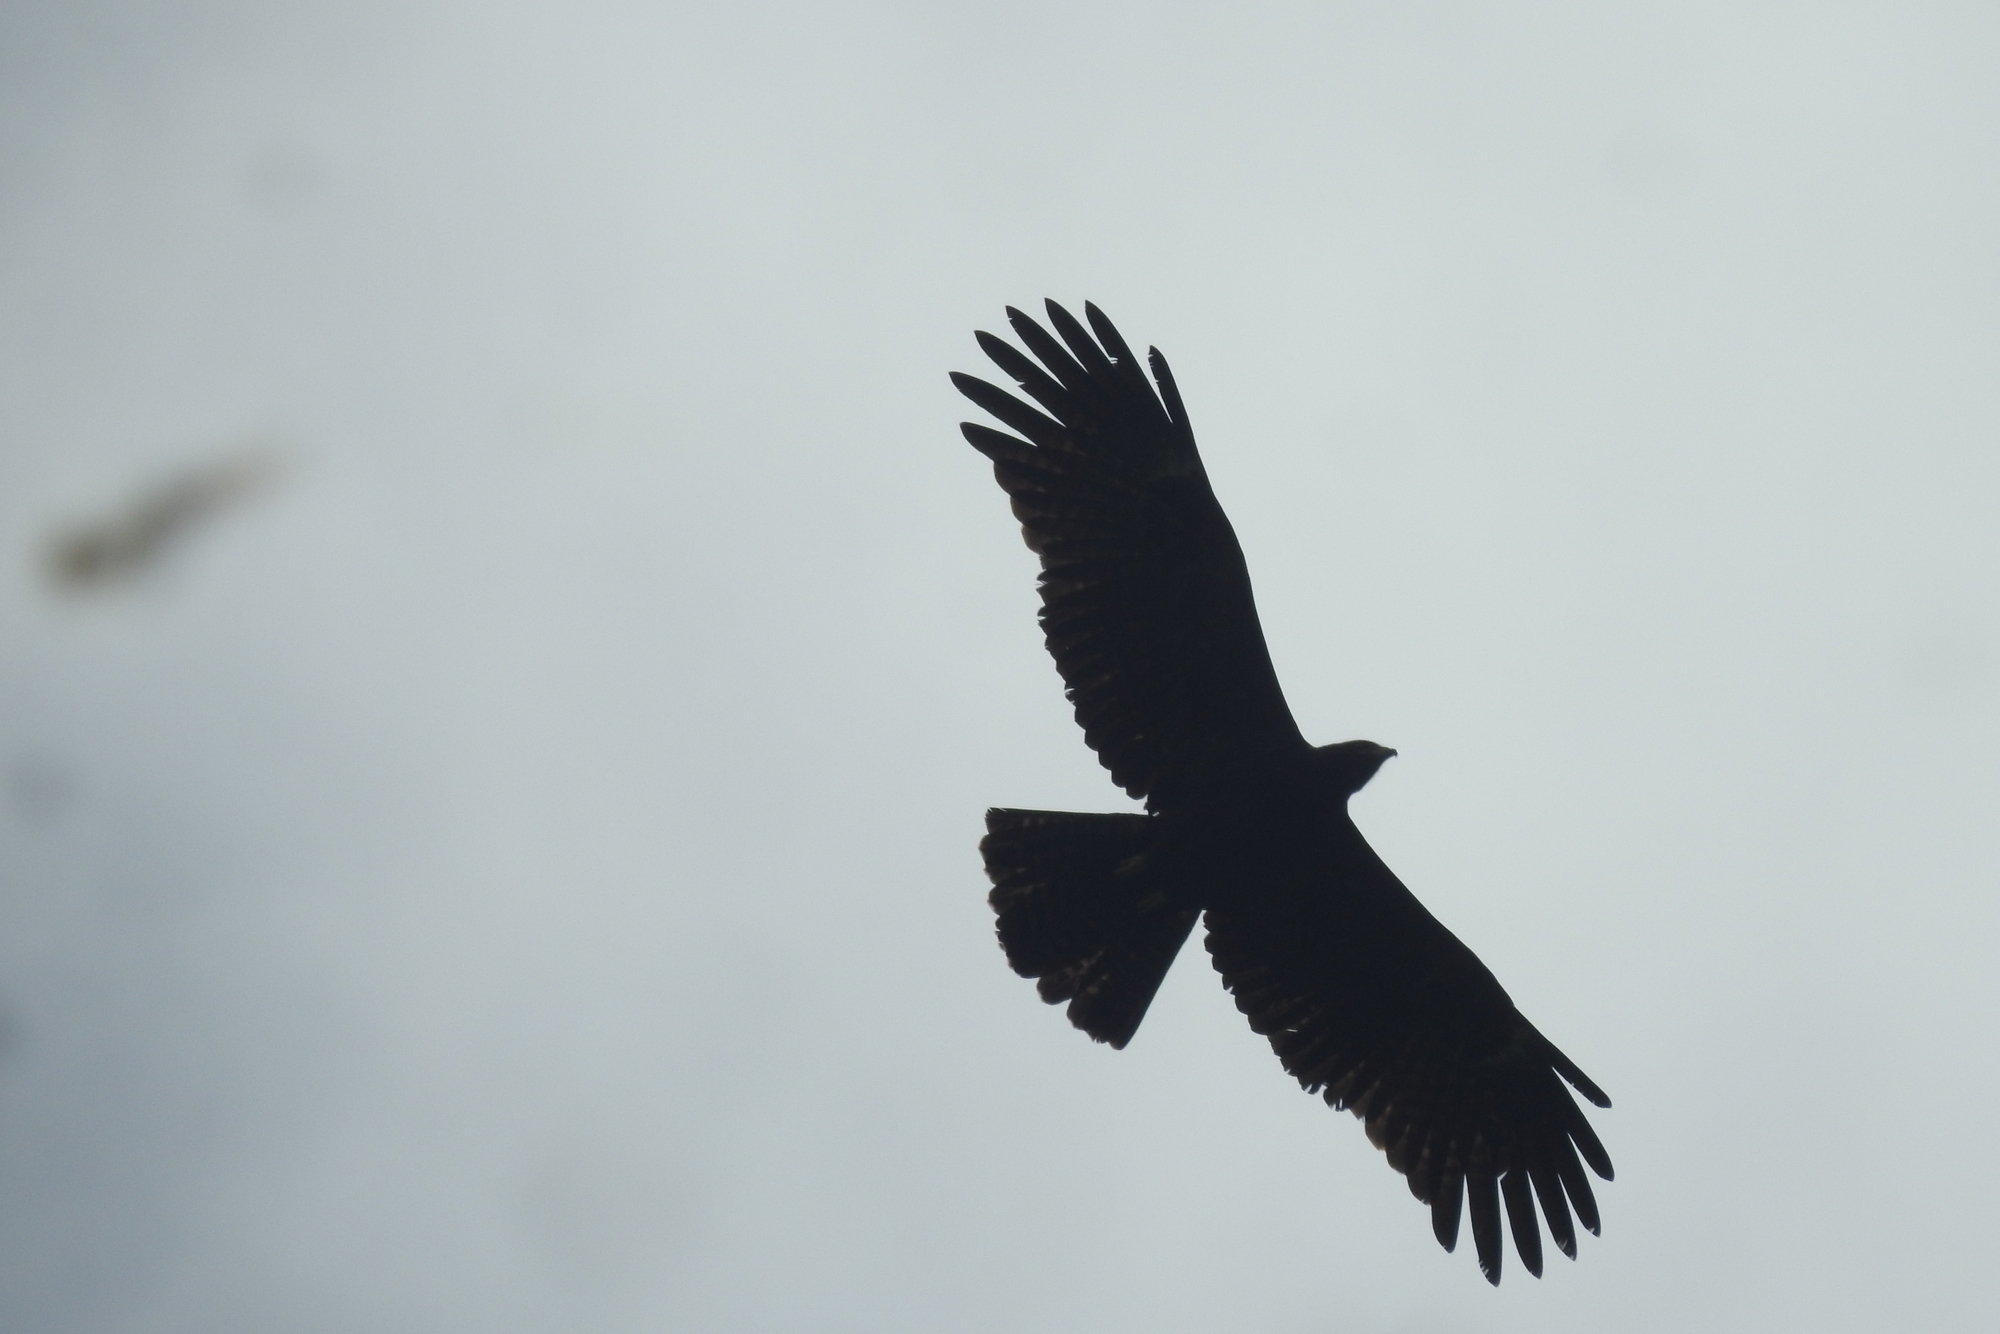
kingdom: Animalia
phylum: Chordata
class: Aves
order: Accipitriformes
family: Accipitridae
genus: Ictinaetus
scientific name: Ictinaetus malayensis
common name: Black eagle
